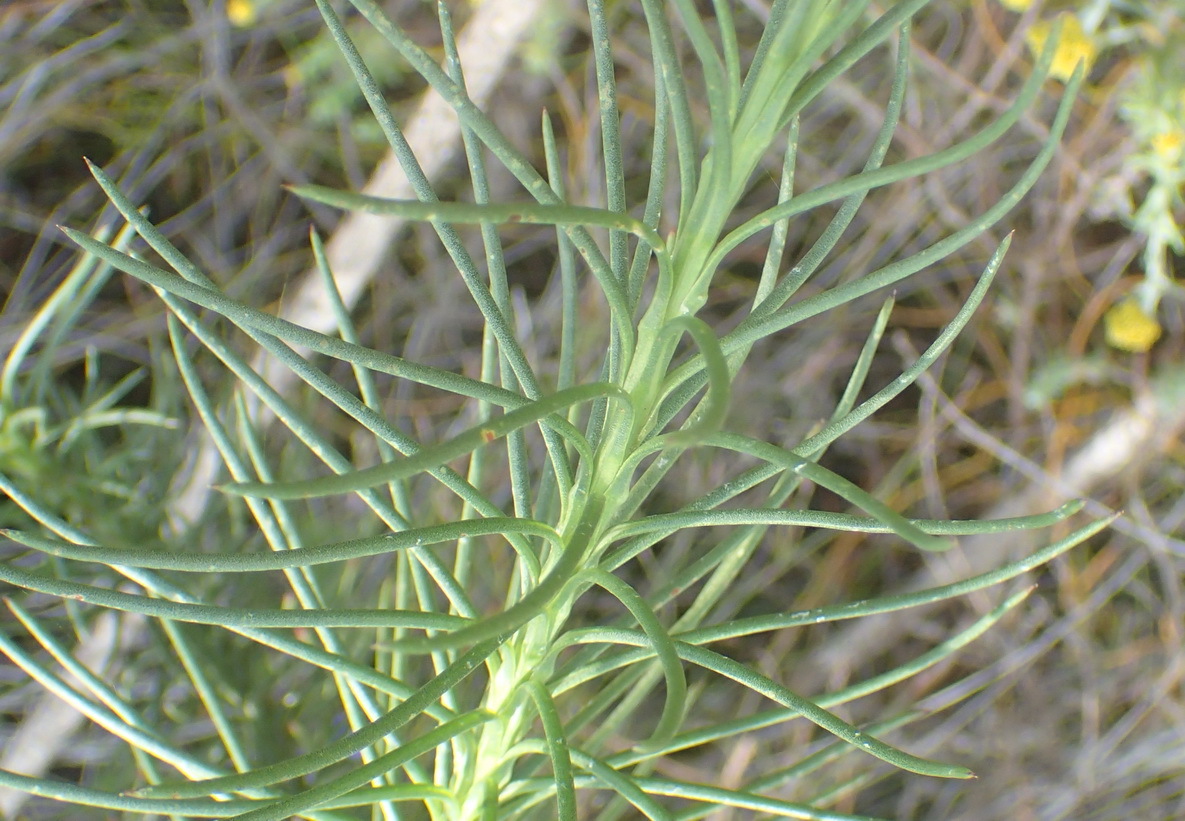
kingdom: Plantae
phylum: Tracheophyta
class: Magnoliopsida
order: Asterales
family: Asteraceae
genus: Athanasia
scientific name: Athanasia linifolia
